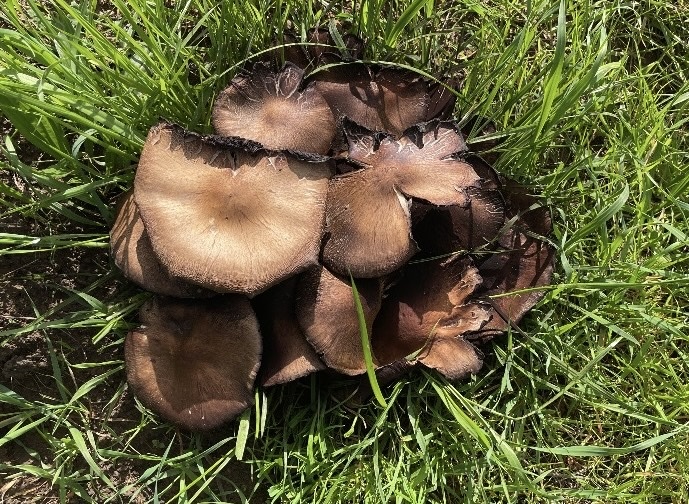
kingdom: Fungi
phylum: Basidiomycota
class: Agaricomycetes
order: Agaricales
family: Psathyrellaceae
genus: Lacrymaria
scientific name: Lacrymaria lacrymabunda
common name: Weeping widow
